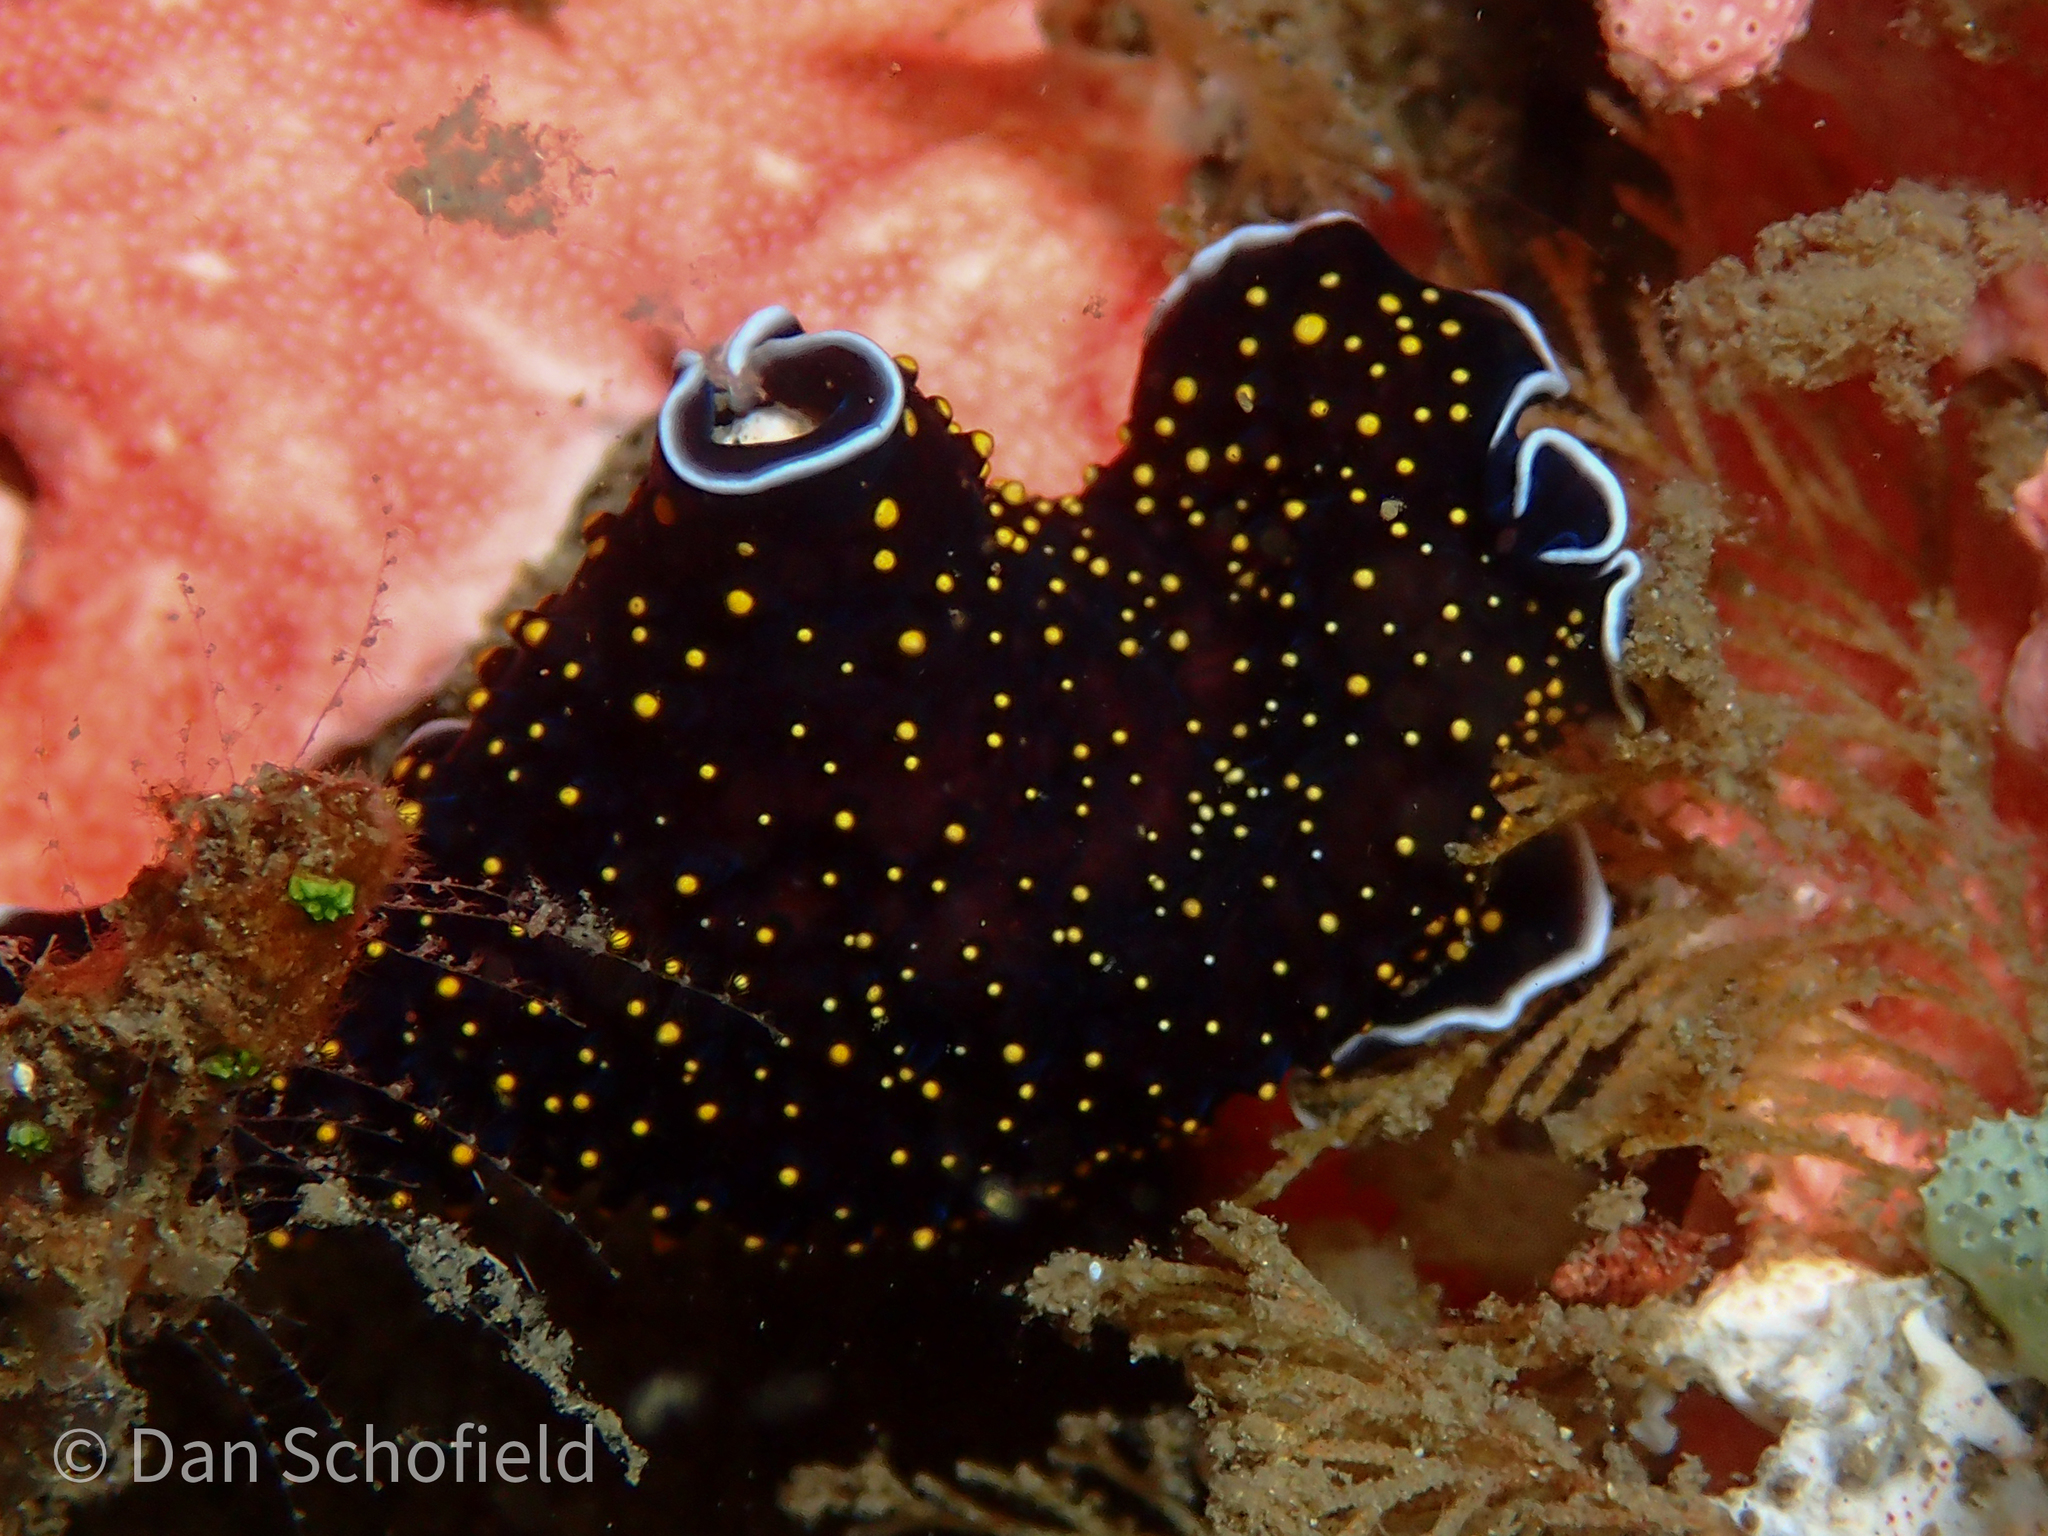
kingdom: Animalia
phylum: Platyhelminthes
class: Turbellaria
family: Pseudocerotidae
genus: Thysanozoon
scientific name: Thysanozoon nigropapillosum
